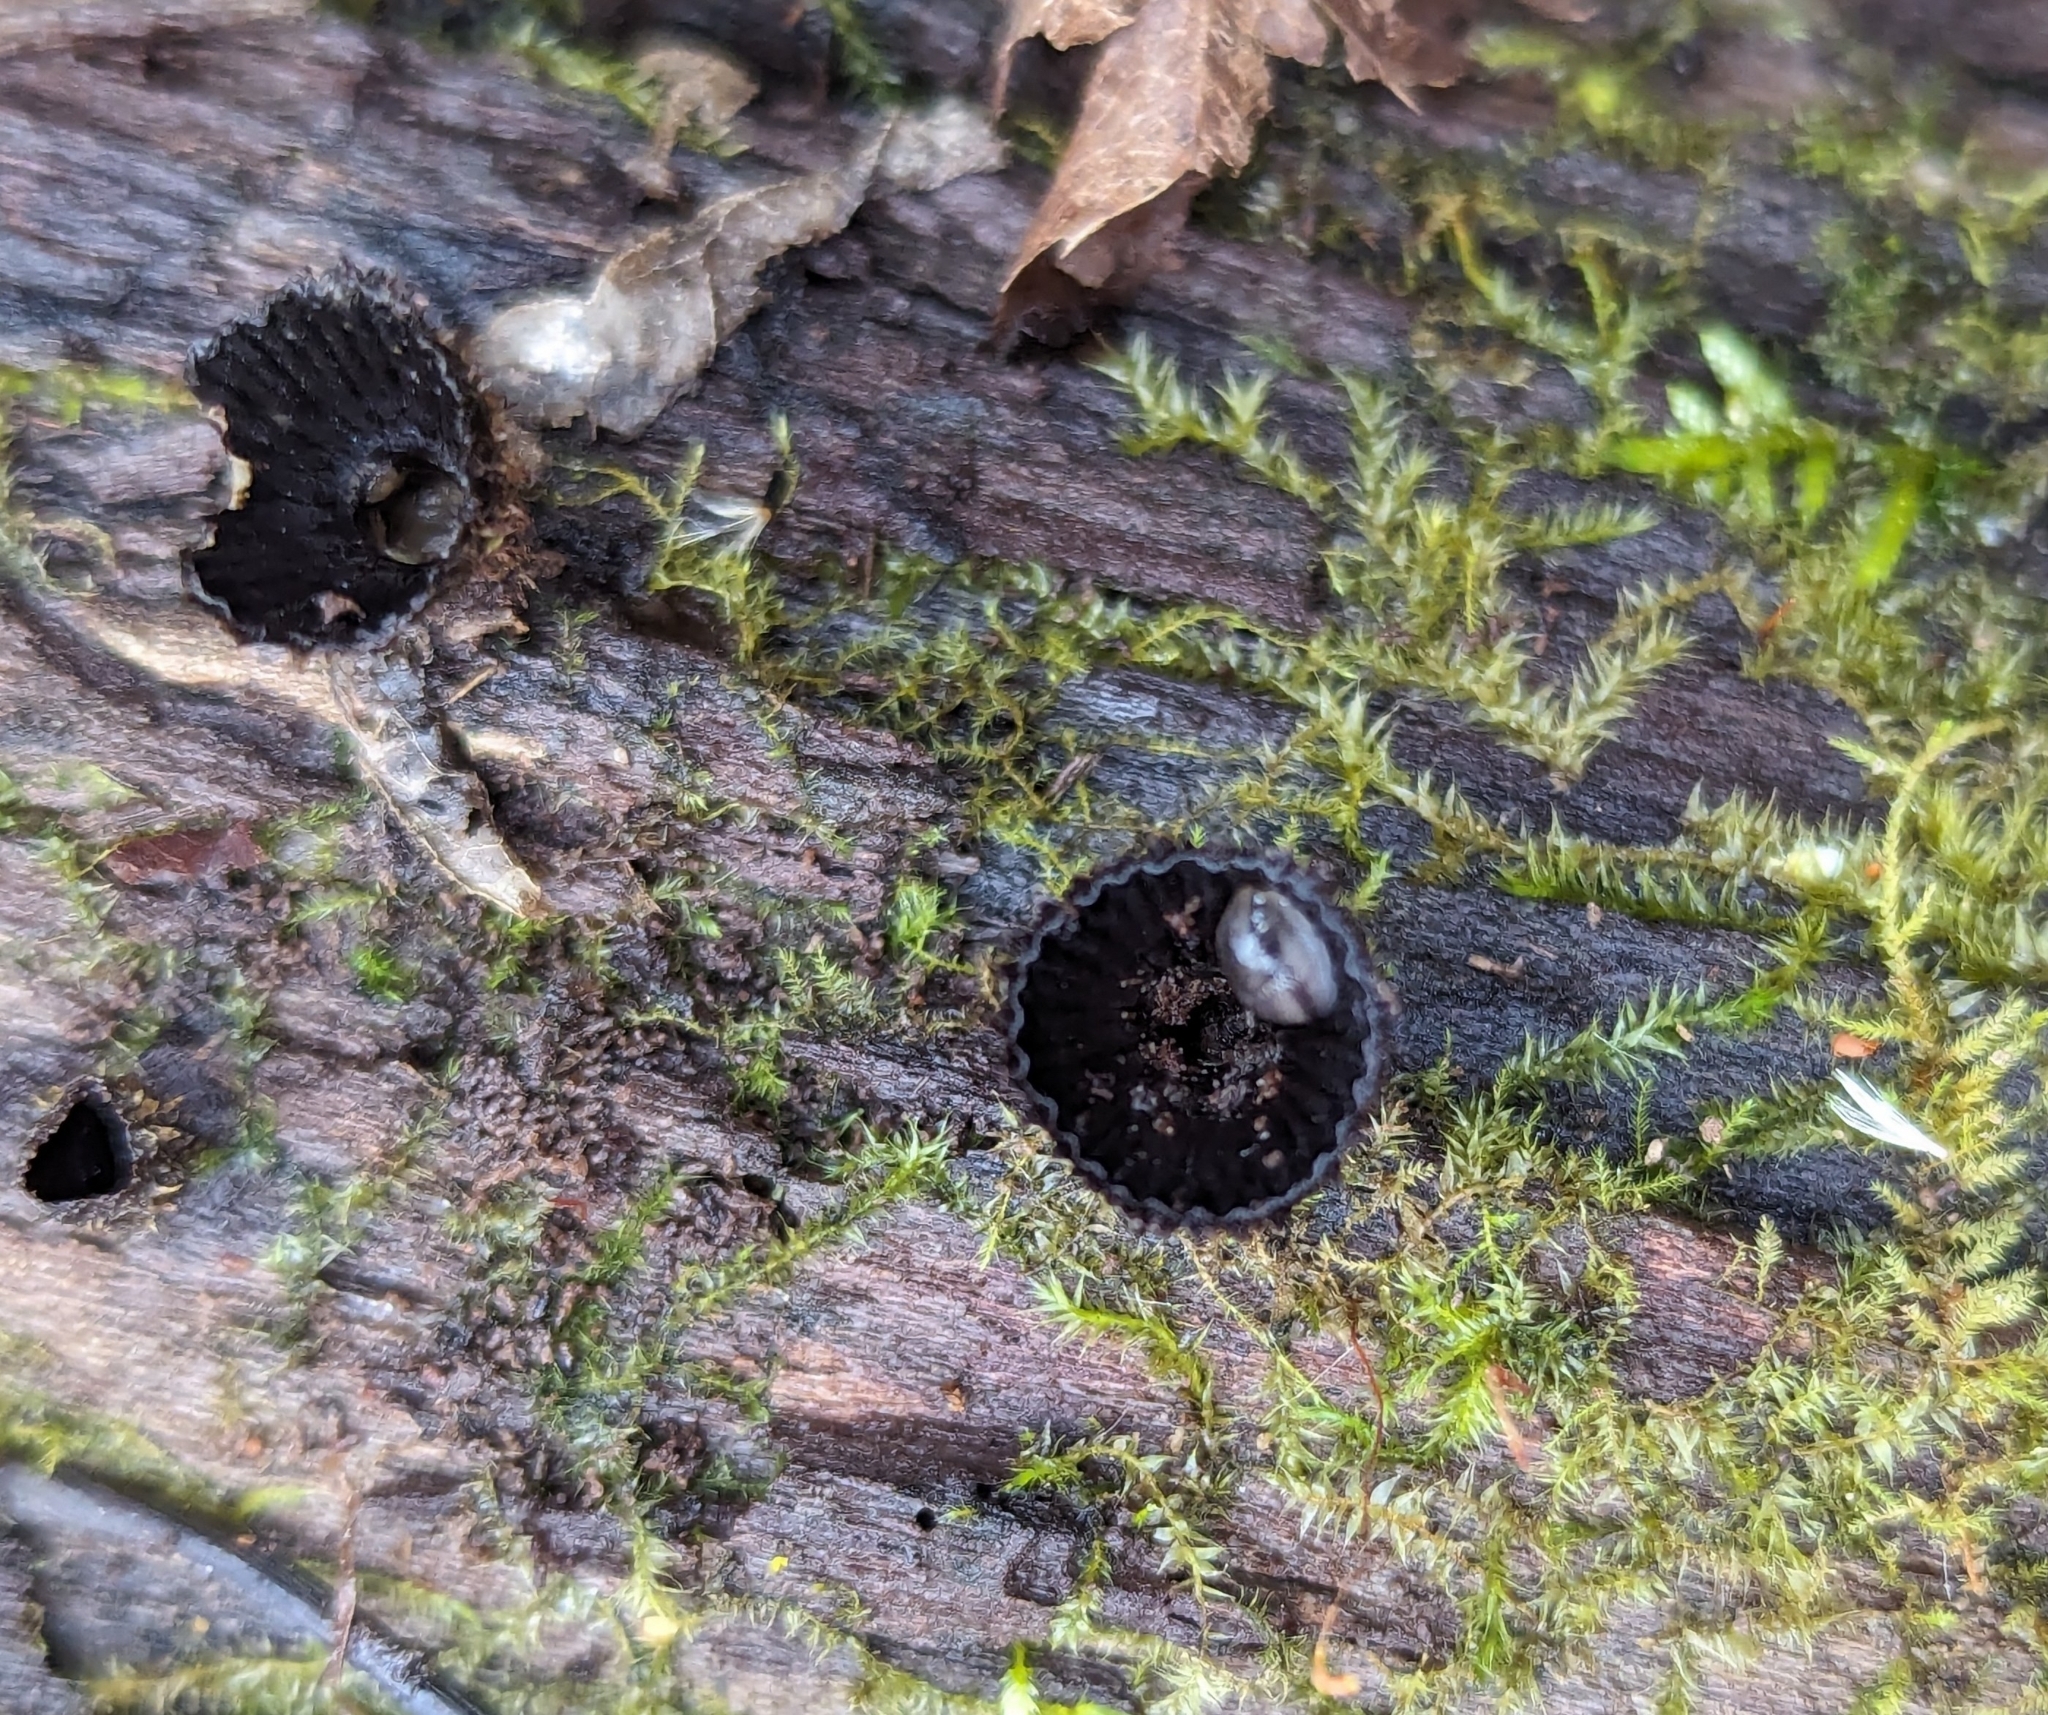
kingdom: Fungi
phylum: Basidiomycota
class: Agaricomycetes
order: Agaricales
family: Agaricaceae
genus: Cyathus
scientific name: Cyathus striatus
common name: Fluted bird's nest
